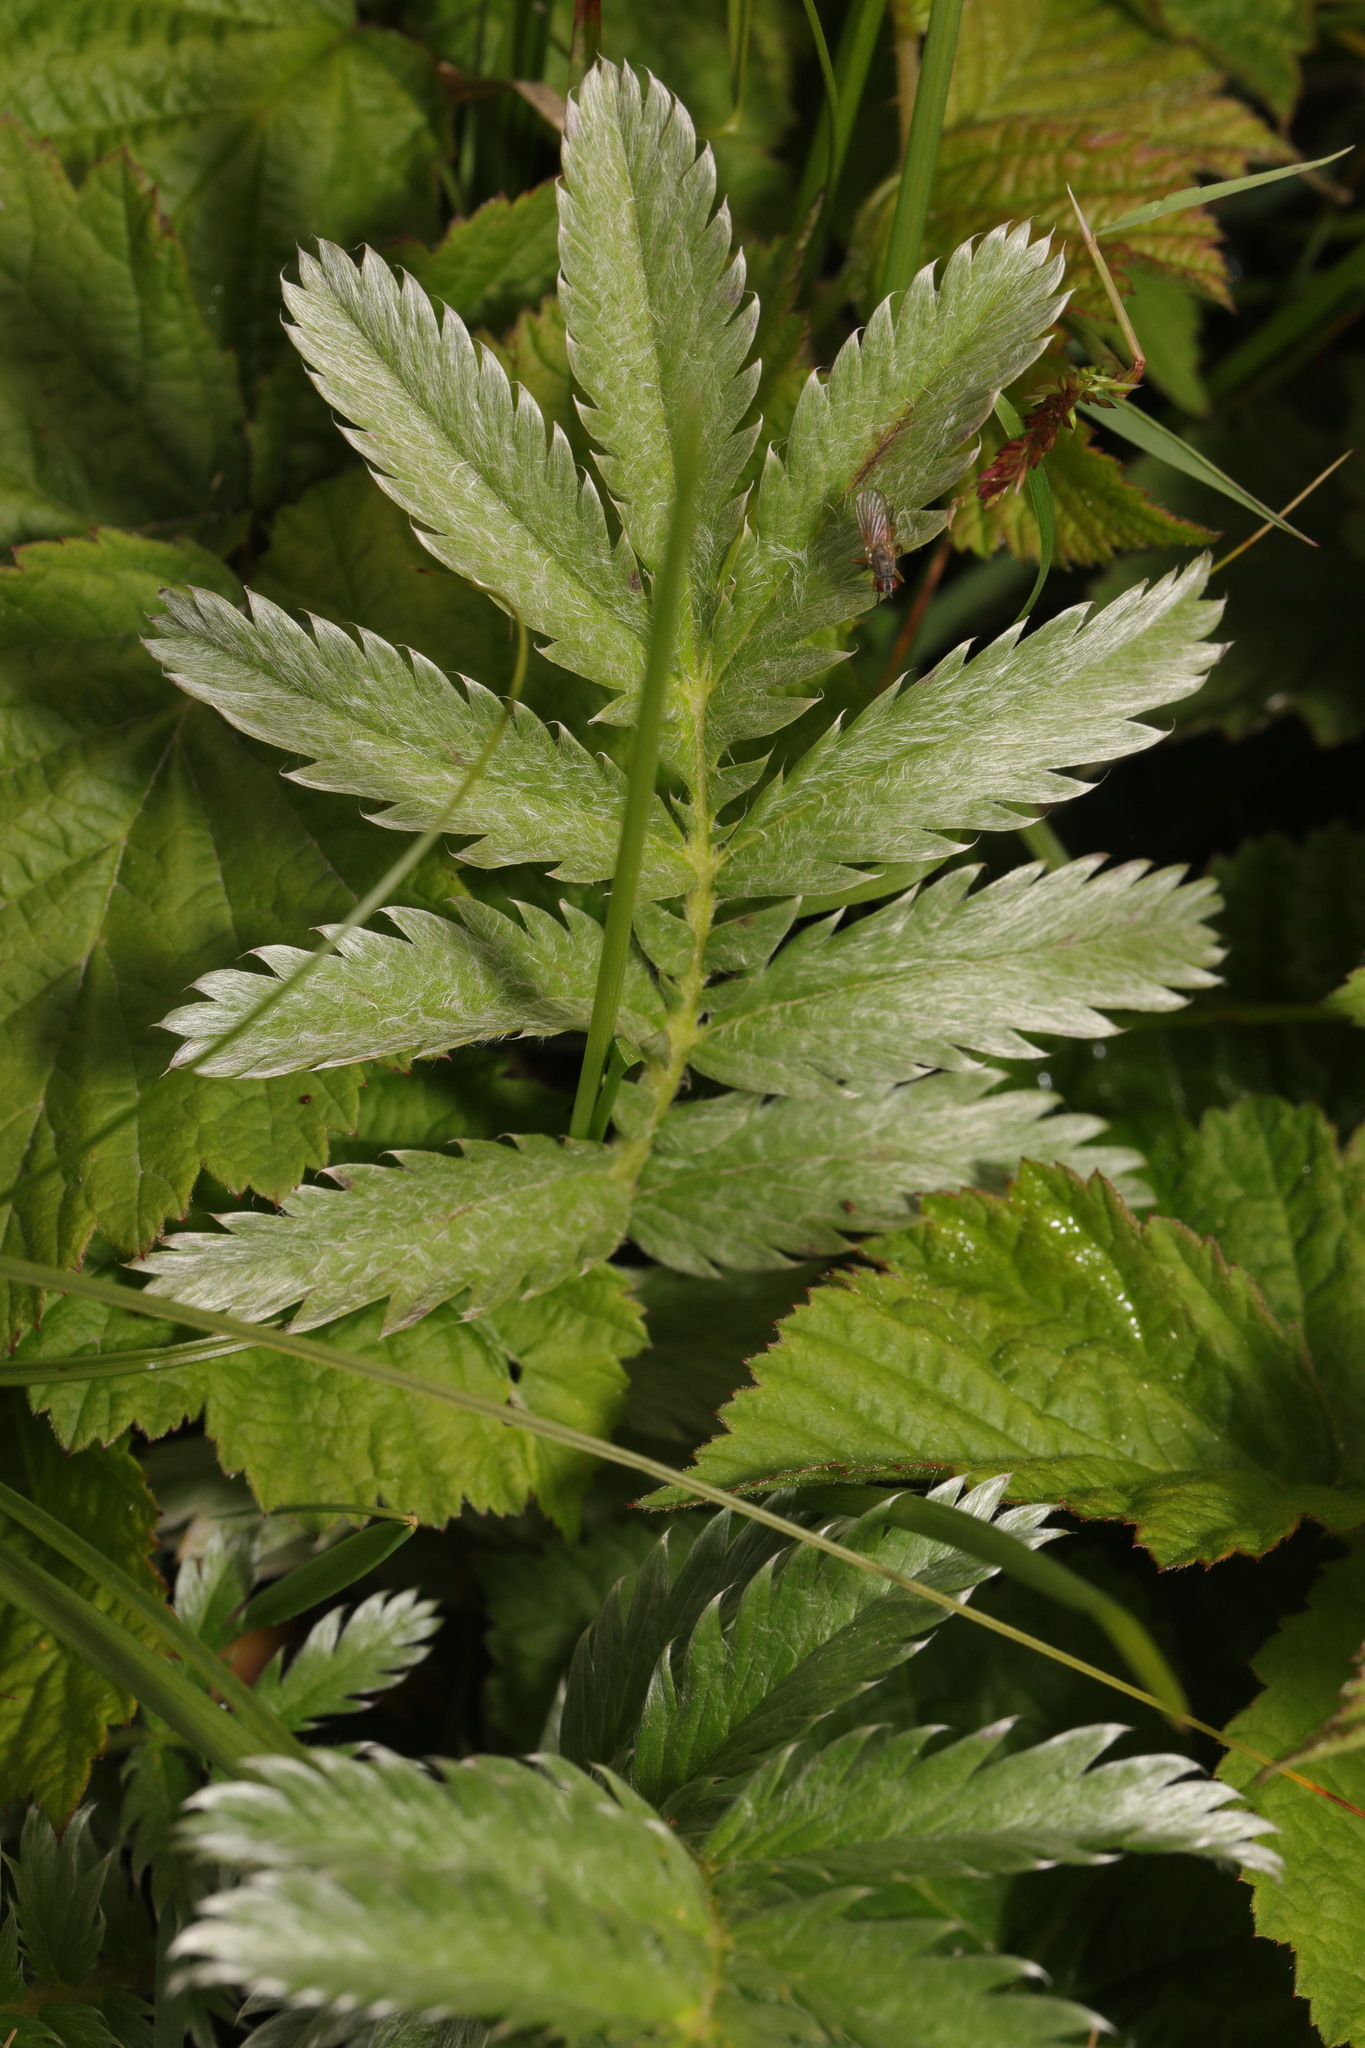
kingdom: Plantae
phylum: Tracheophyta
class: Magnoliopsida
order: Rosales
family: Rosaceae
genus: Argentina
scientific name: Argentina anserina
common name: Common silverweed
